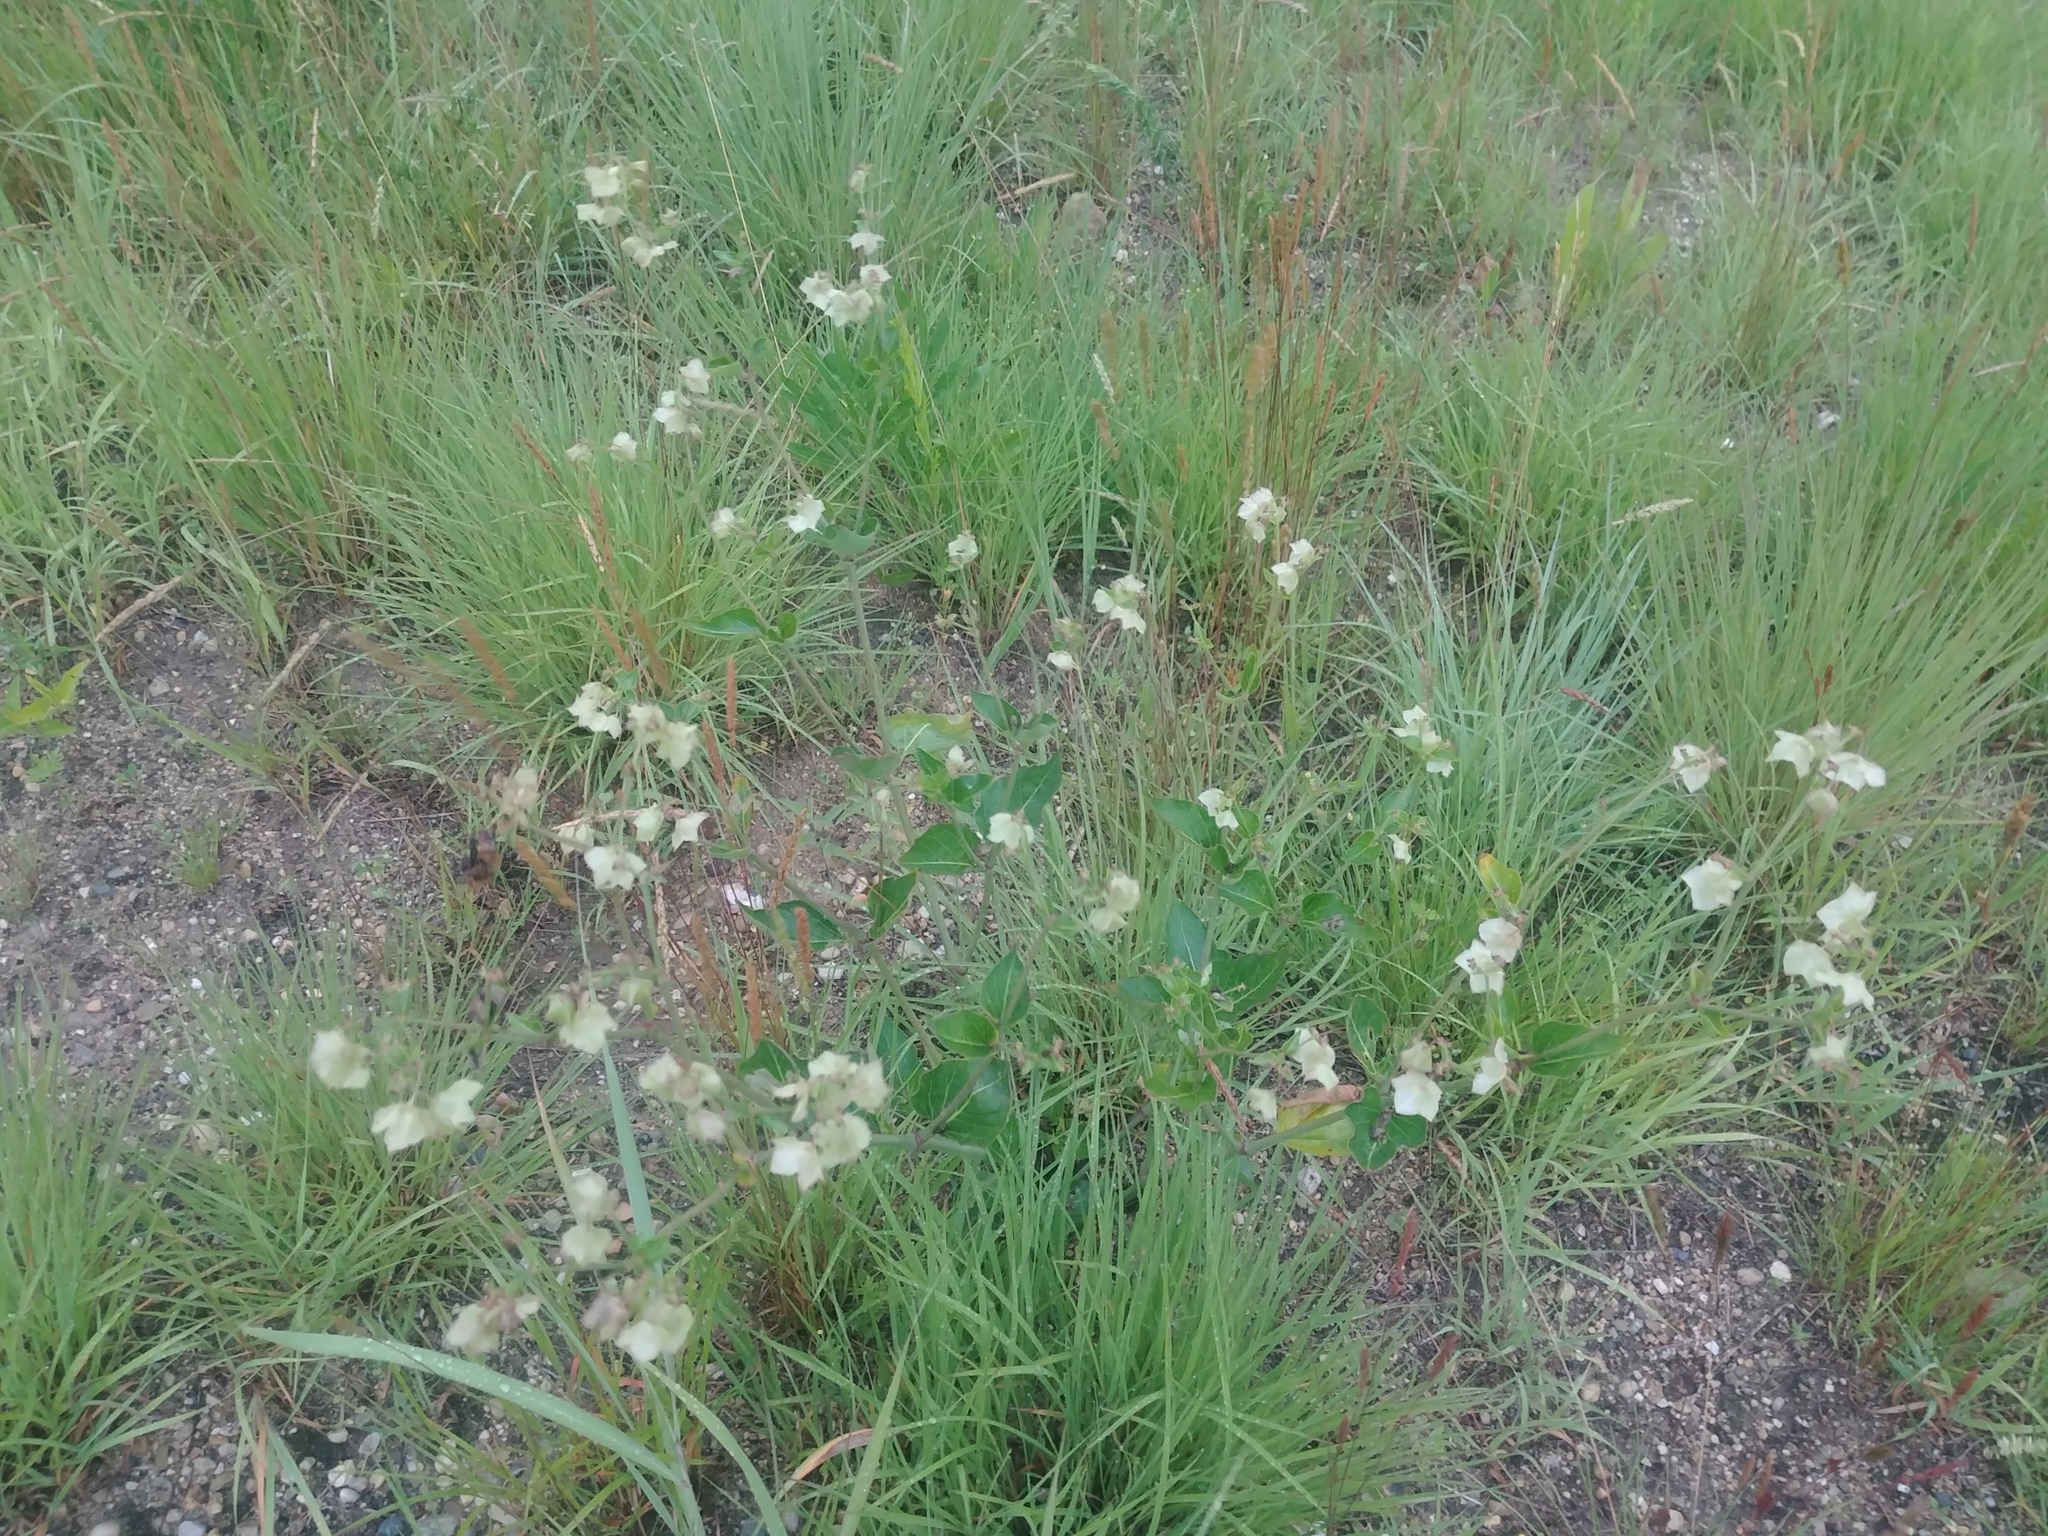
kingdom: Plantae
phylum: Tracheophyta
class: Magnoliopsida
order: Caryophyllales
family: Nyctaginaceae
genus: Mirabilis
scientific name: Mirabilis nyctaginea
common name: Umbrella wort
